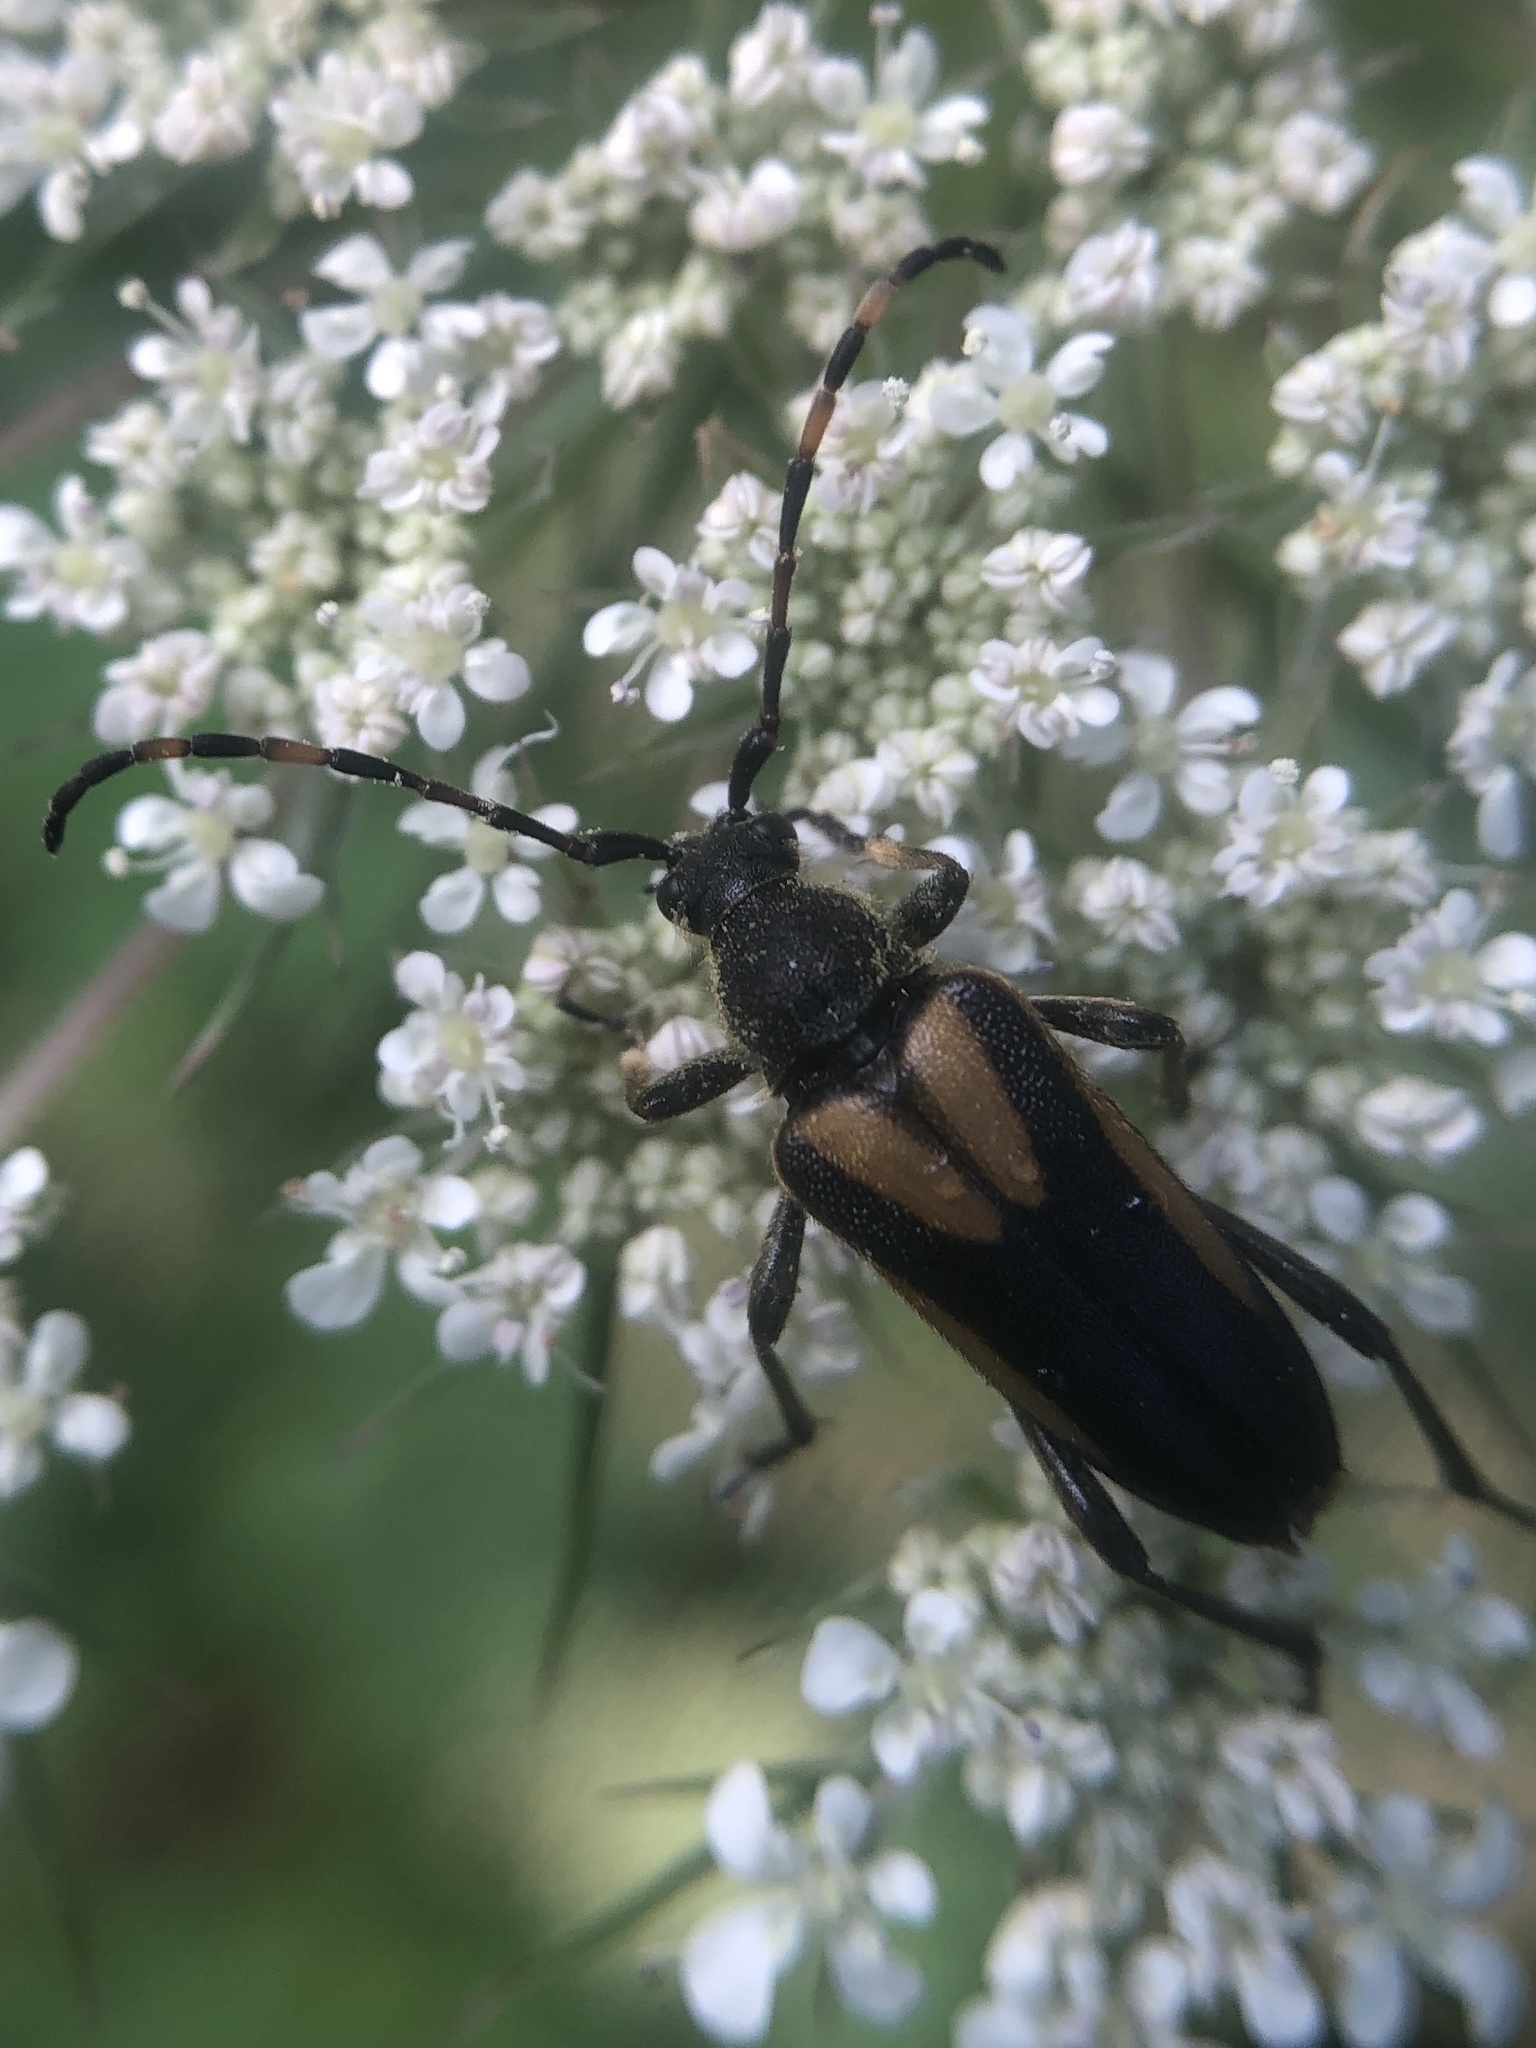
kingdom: Animalia
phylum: Arthropoda
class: Insecta
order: Coleoptera
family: Cerambycidae
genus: Stictoleptura
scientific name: Stictoleptura stragulata
